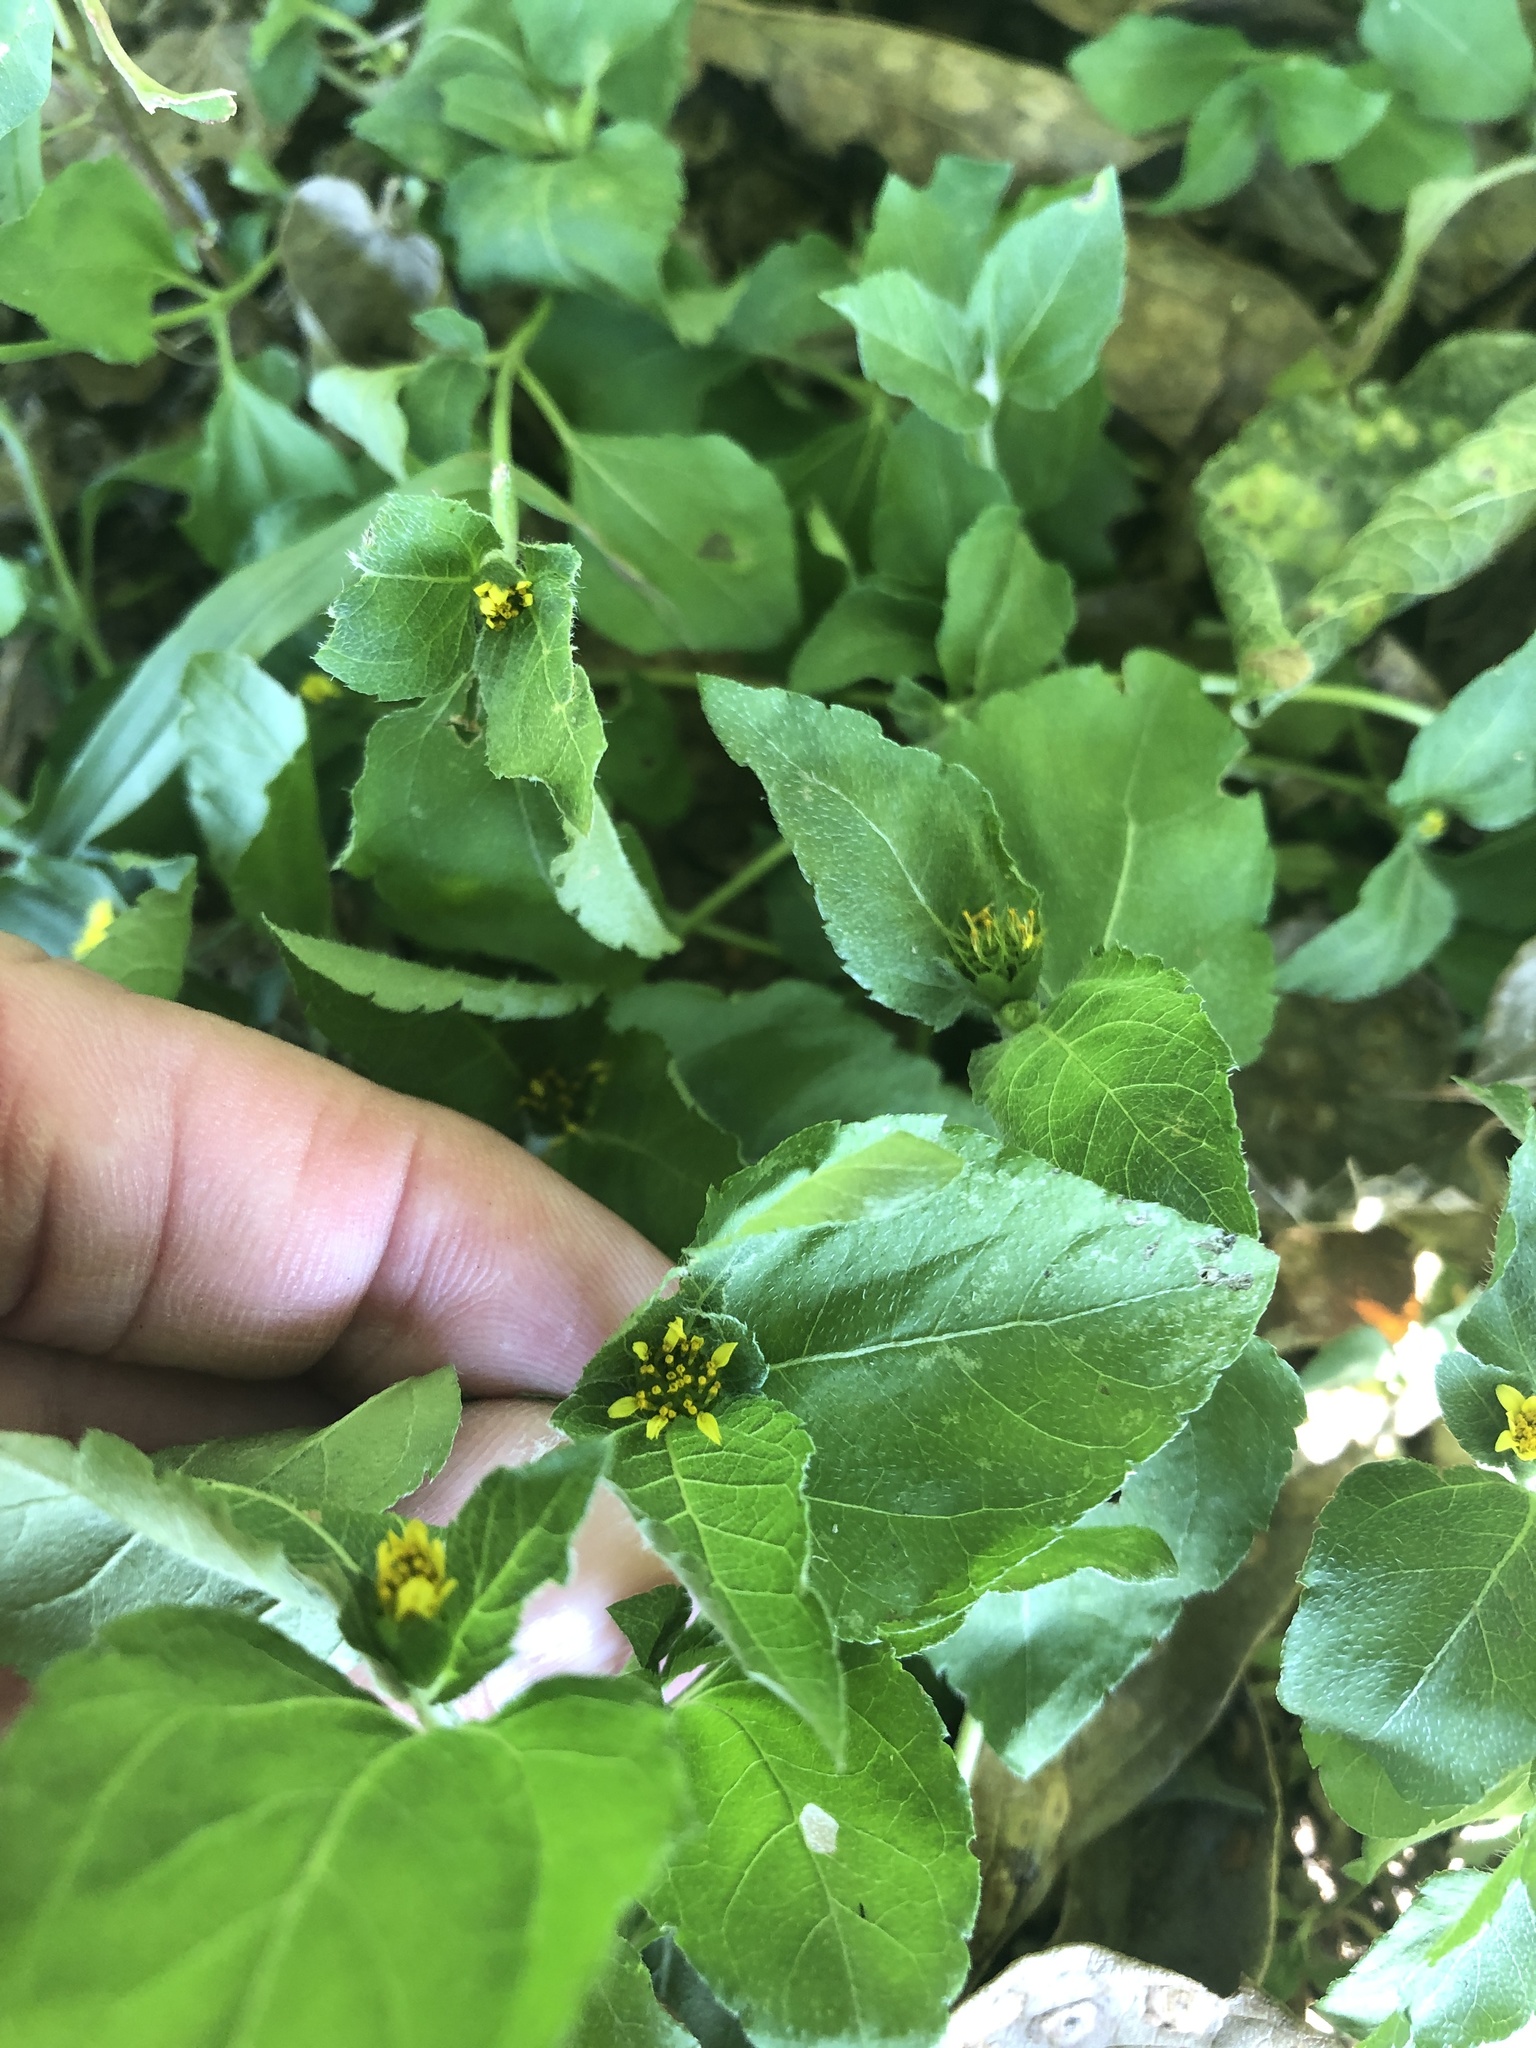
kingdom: Plantae
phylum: Tracheophyta
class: Magnoliopsida
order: Asterales
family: Asteraceae
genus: Calyptocarpus
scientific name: Calyptocarpus vialis
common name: Straggler daisy
